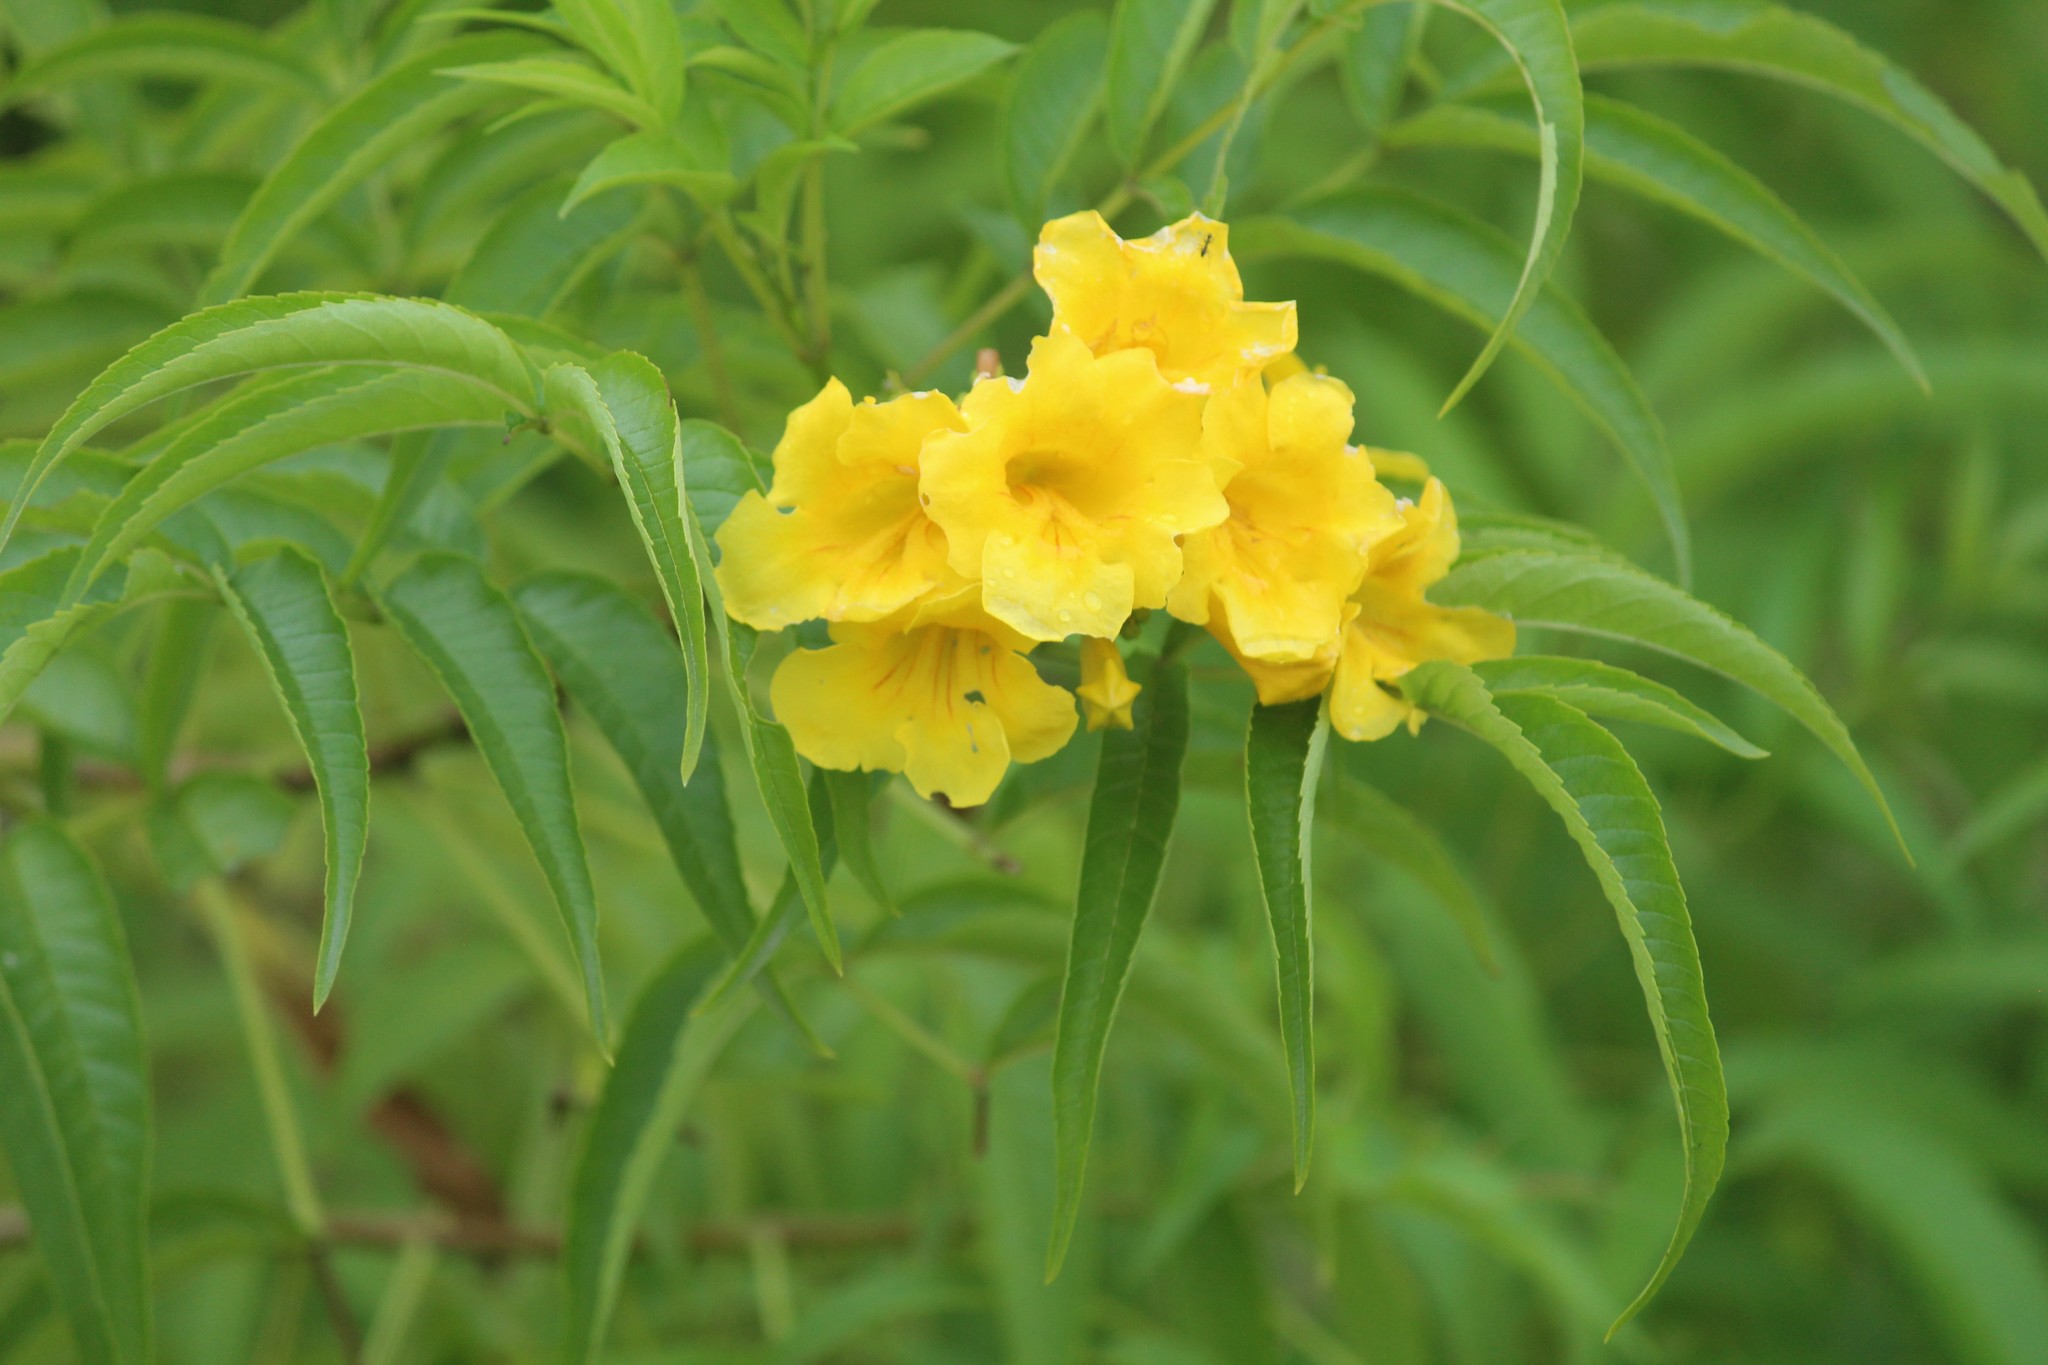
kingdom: Plantae
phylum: Tracheophyta
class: Magnoliopsida
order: Lamiales
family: Bignoniaceae
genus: Tecoma
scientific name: Tecoma stans
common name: Yellow trumpetbush
